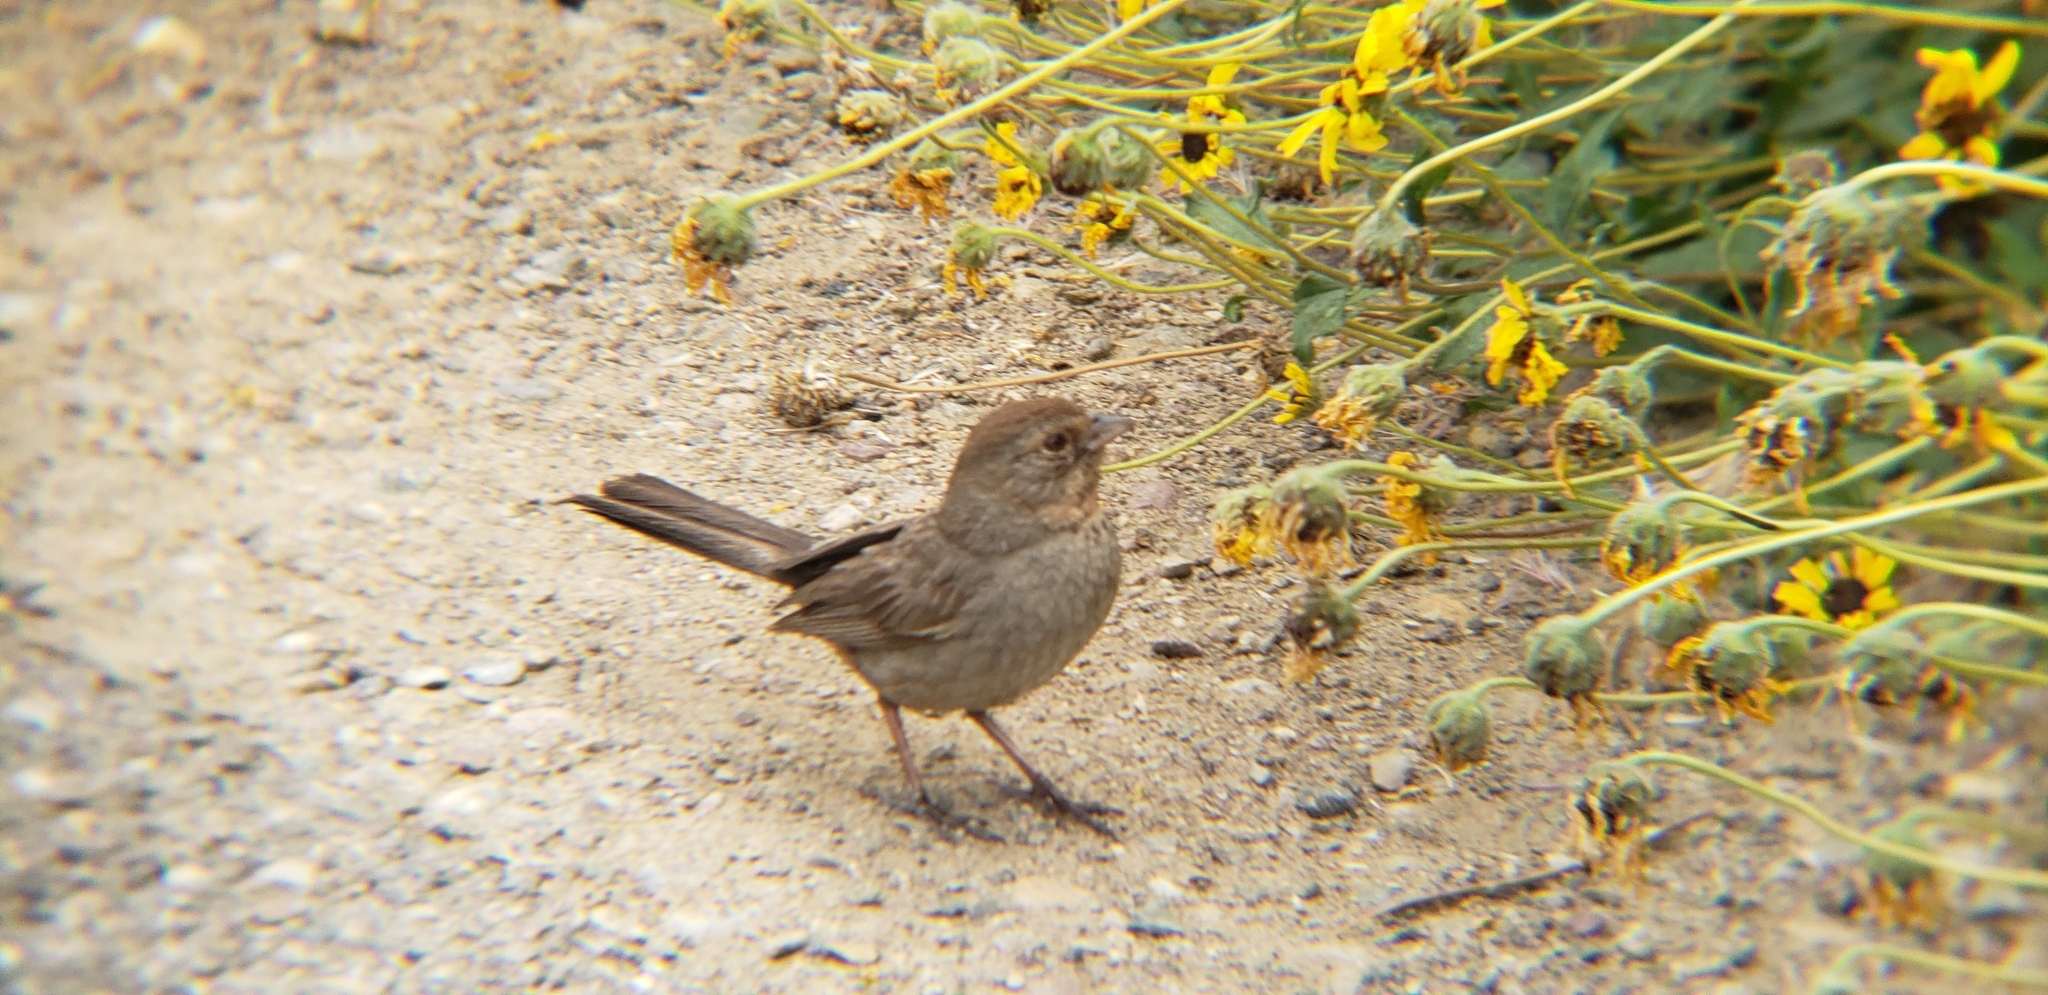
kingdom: Animalia
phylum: Chordata
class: Aves
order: Passeriformes
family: Passerellidae
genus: Melozone
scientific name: Melozone crissalis
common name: California towhee
